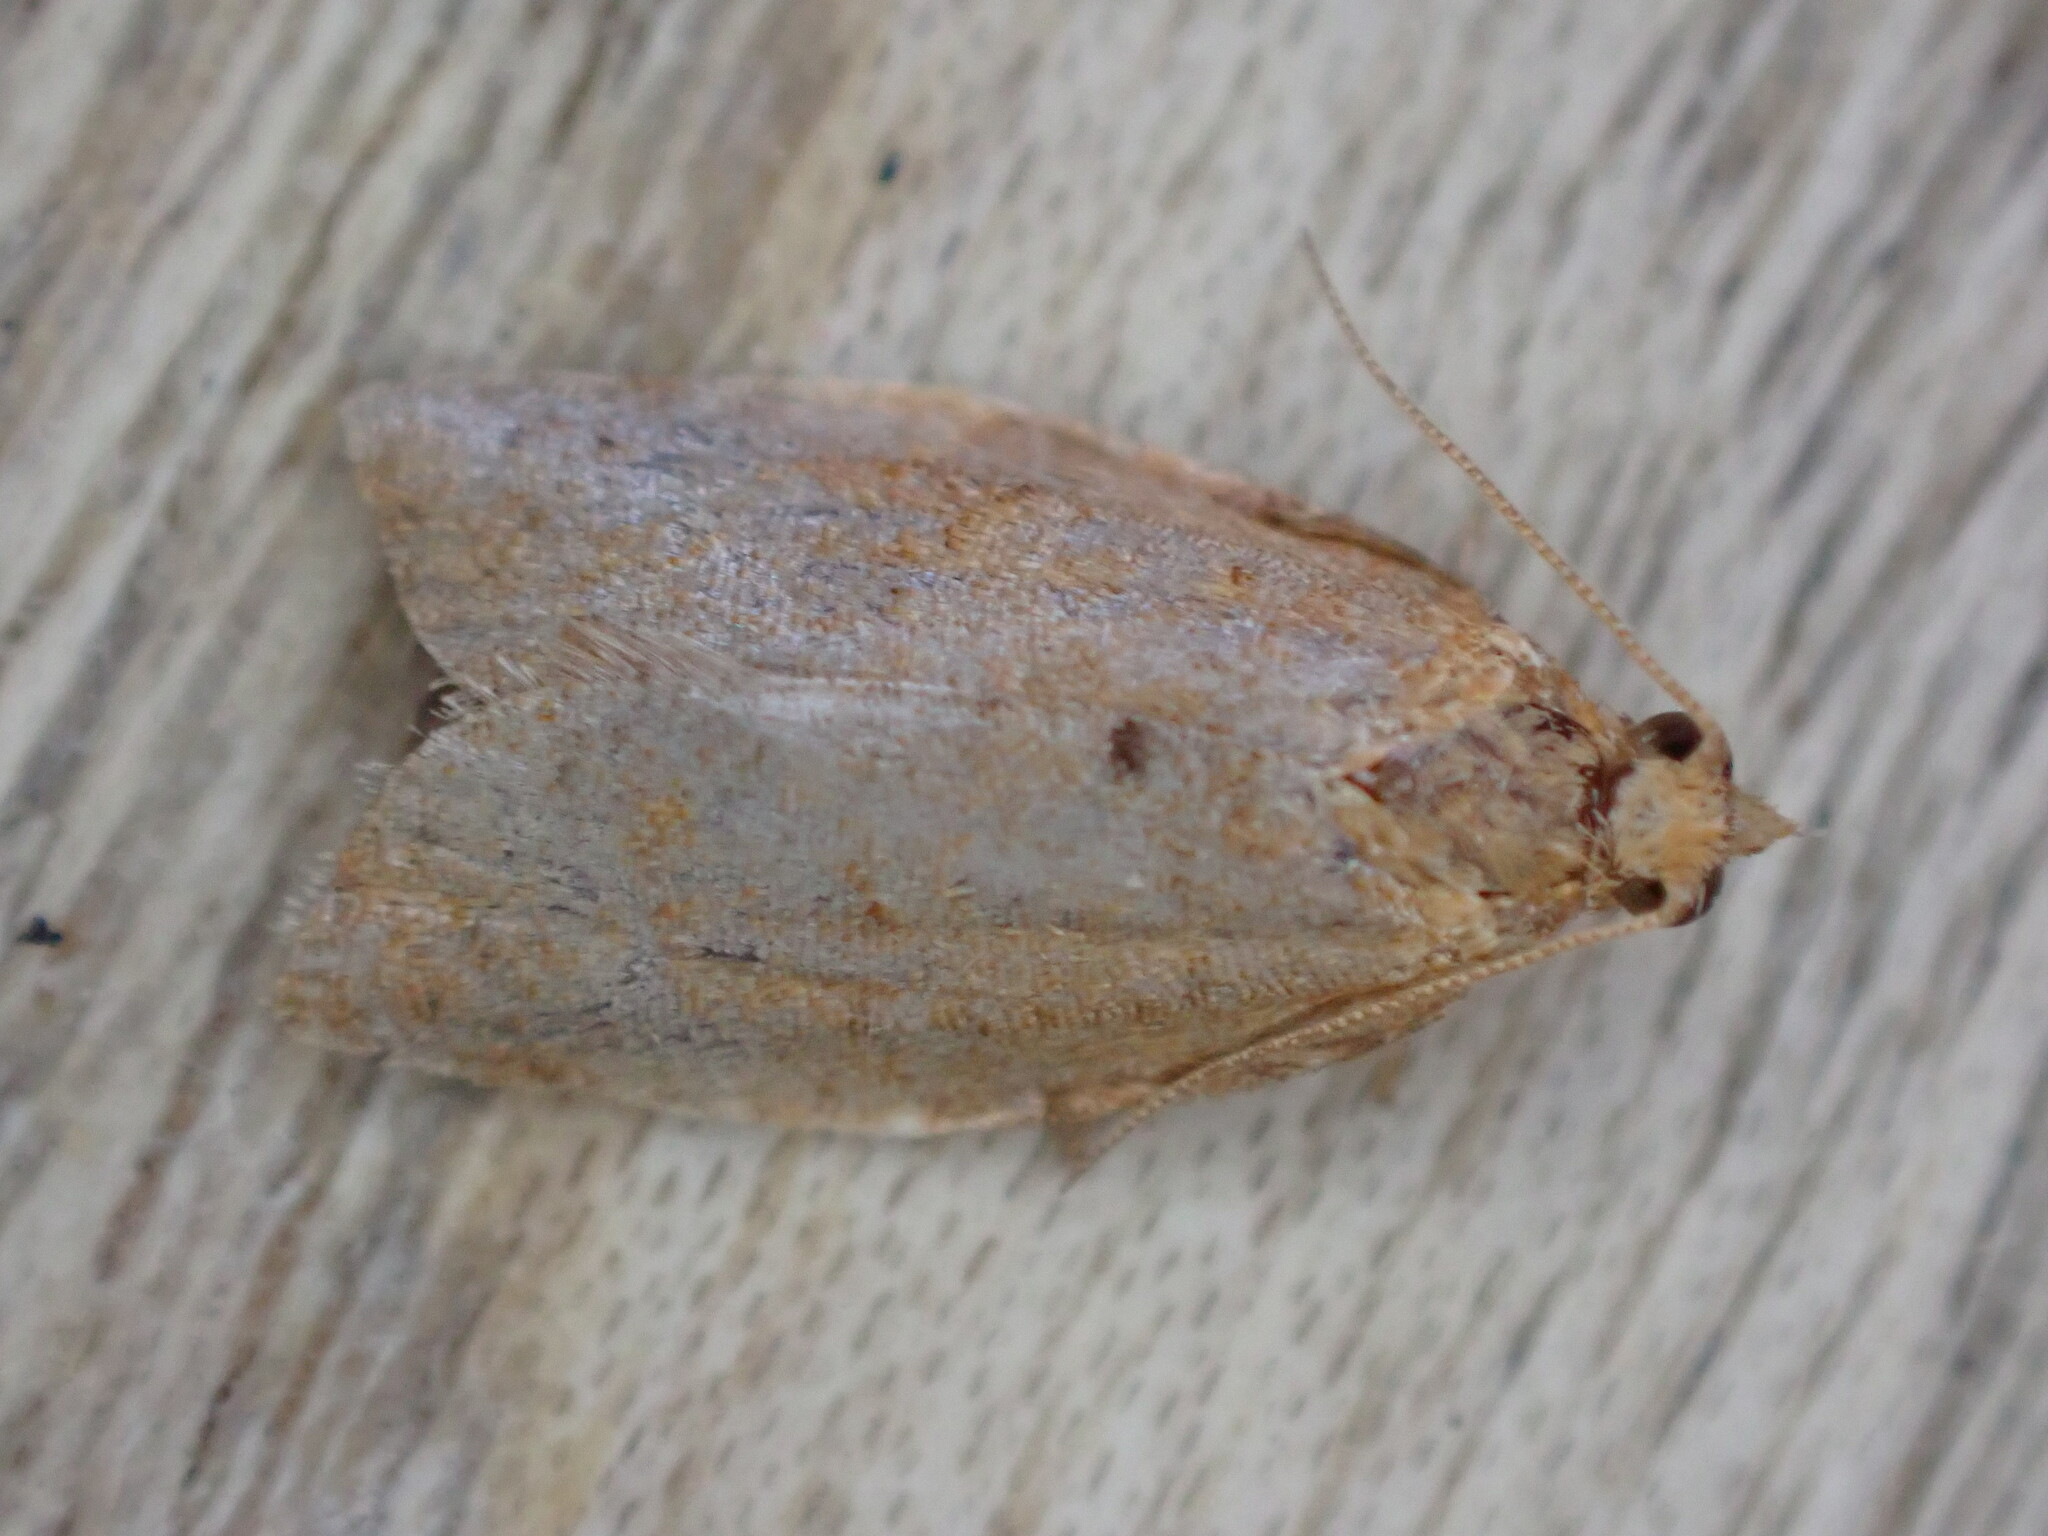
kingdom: Animalia
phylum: Arthropoda
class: Insecta
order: Lepidoptera
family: Tortricidae
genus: Clepsis
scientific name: Clepsis consimilana
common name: Privet tortrix
